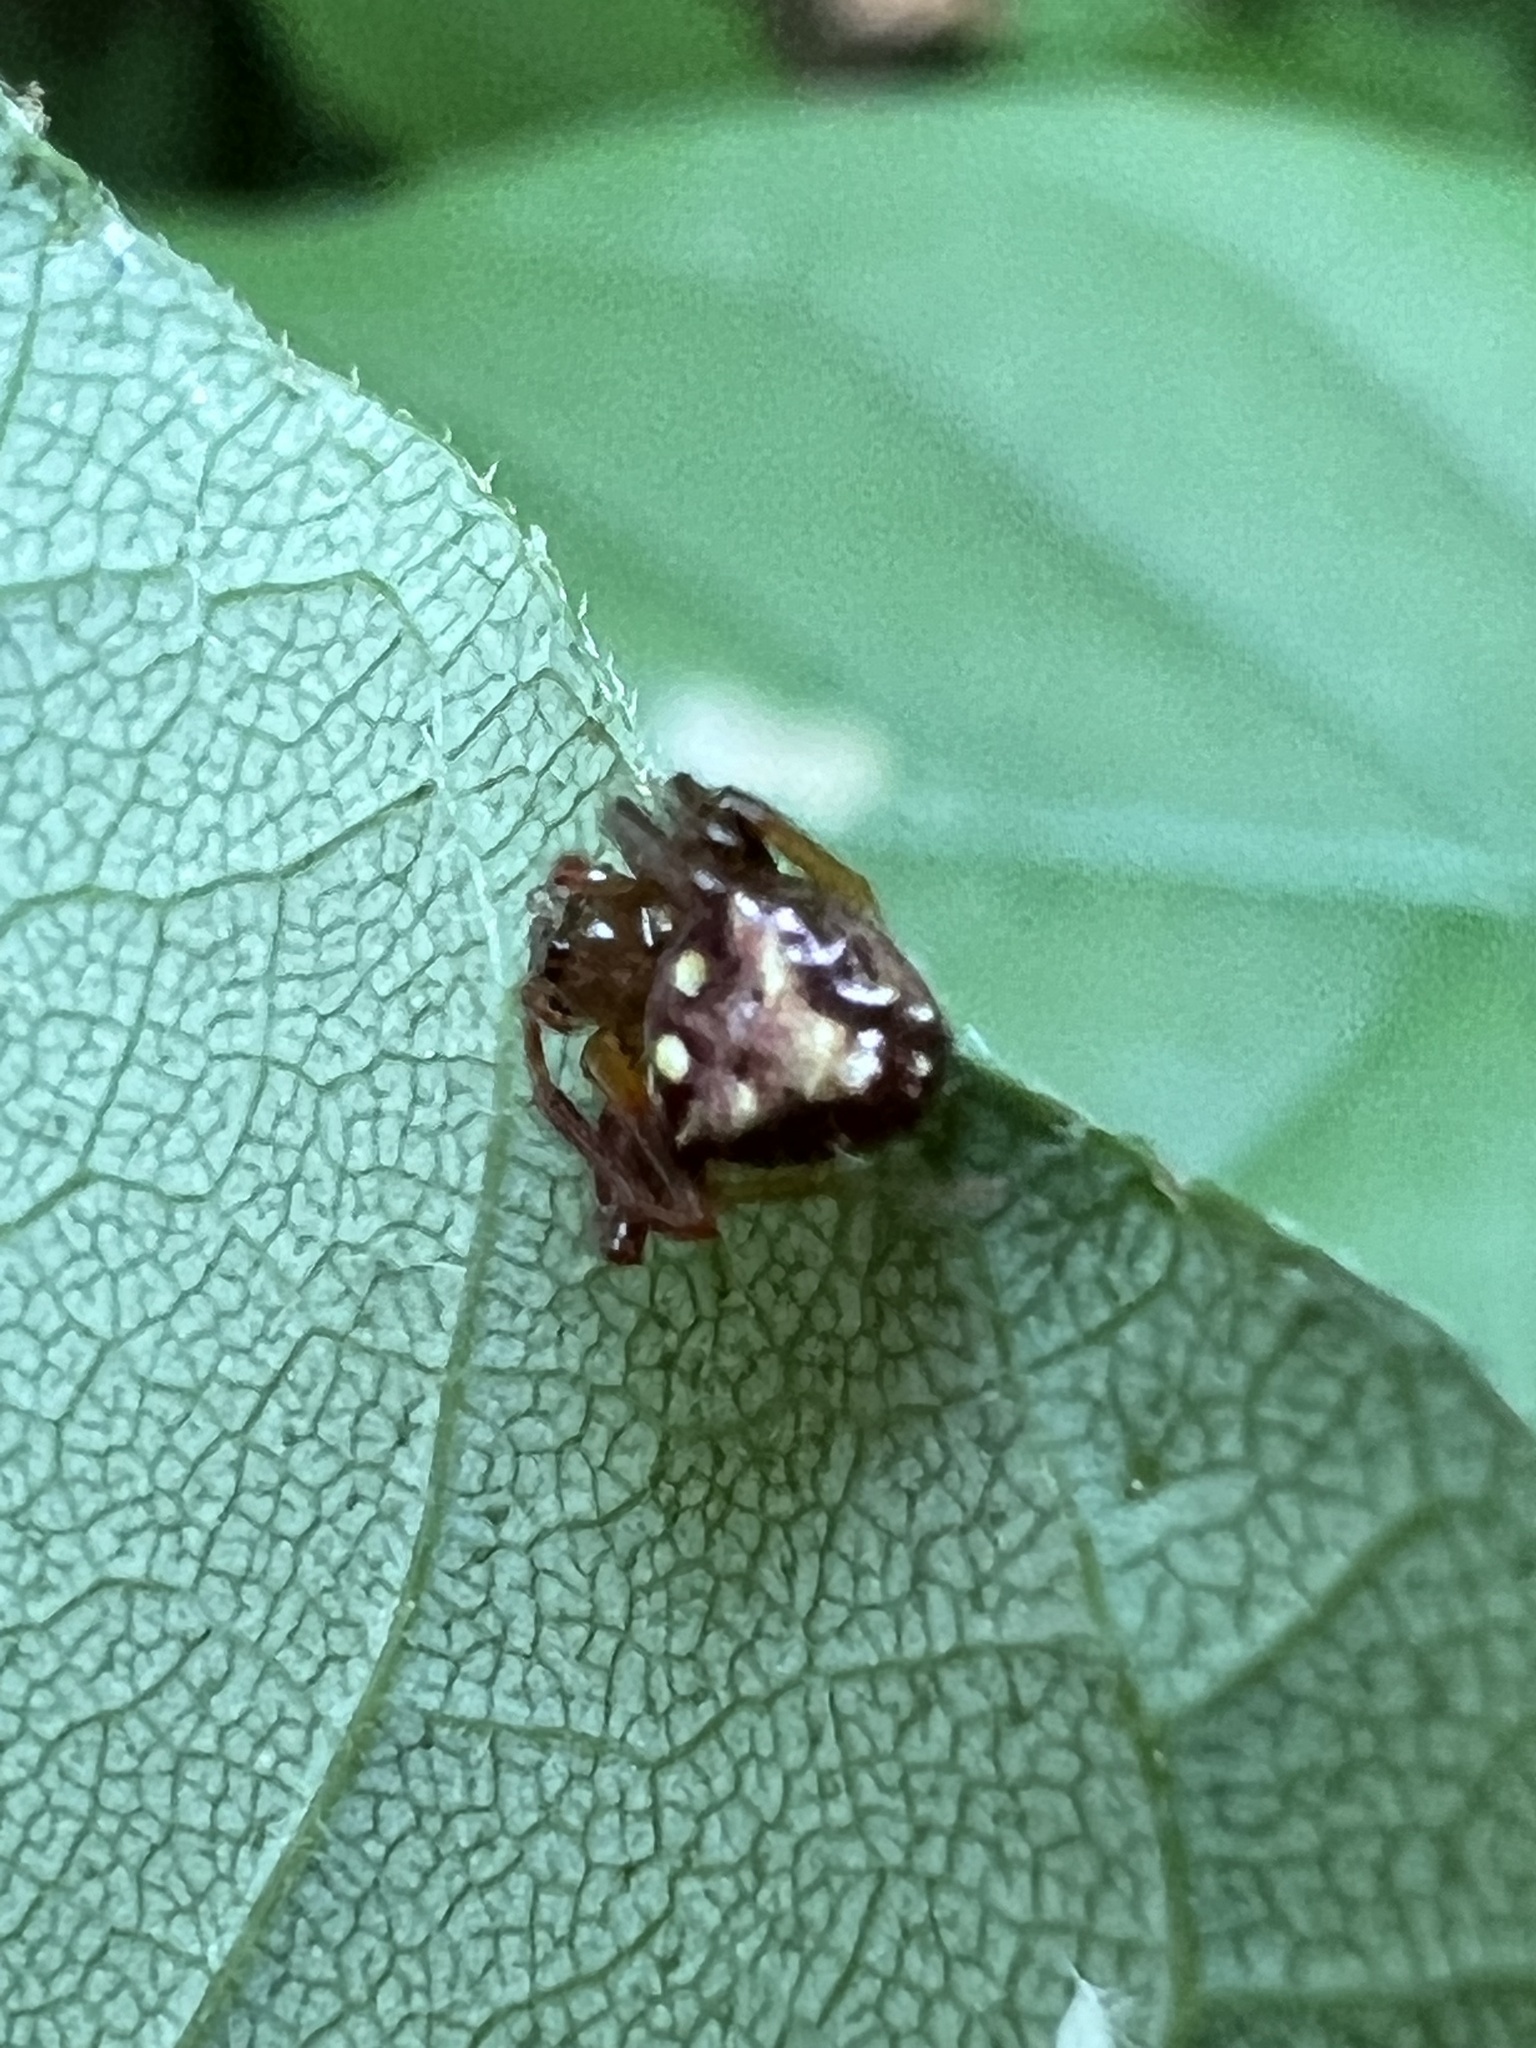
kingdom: Animalia
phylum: Arthropoda
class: Arachnida
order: Araneae
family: Araneidae
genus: Verrucosa
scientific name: Verrucosa arenata
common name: Orb weavers
